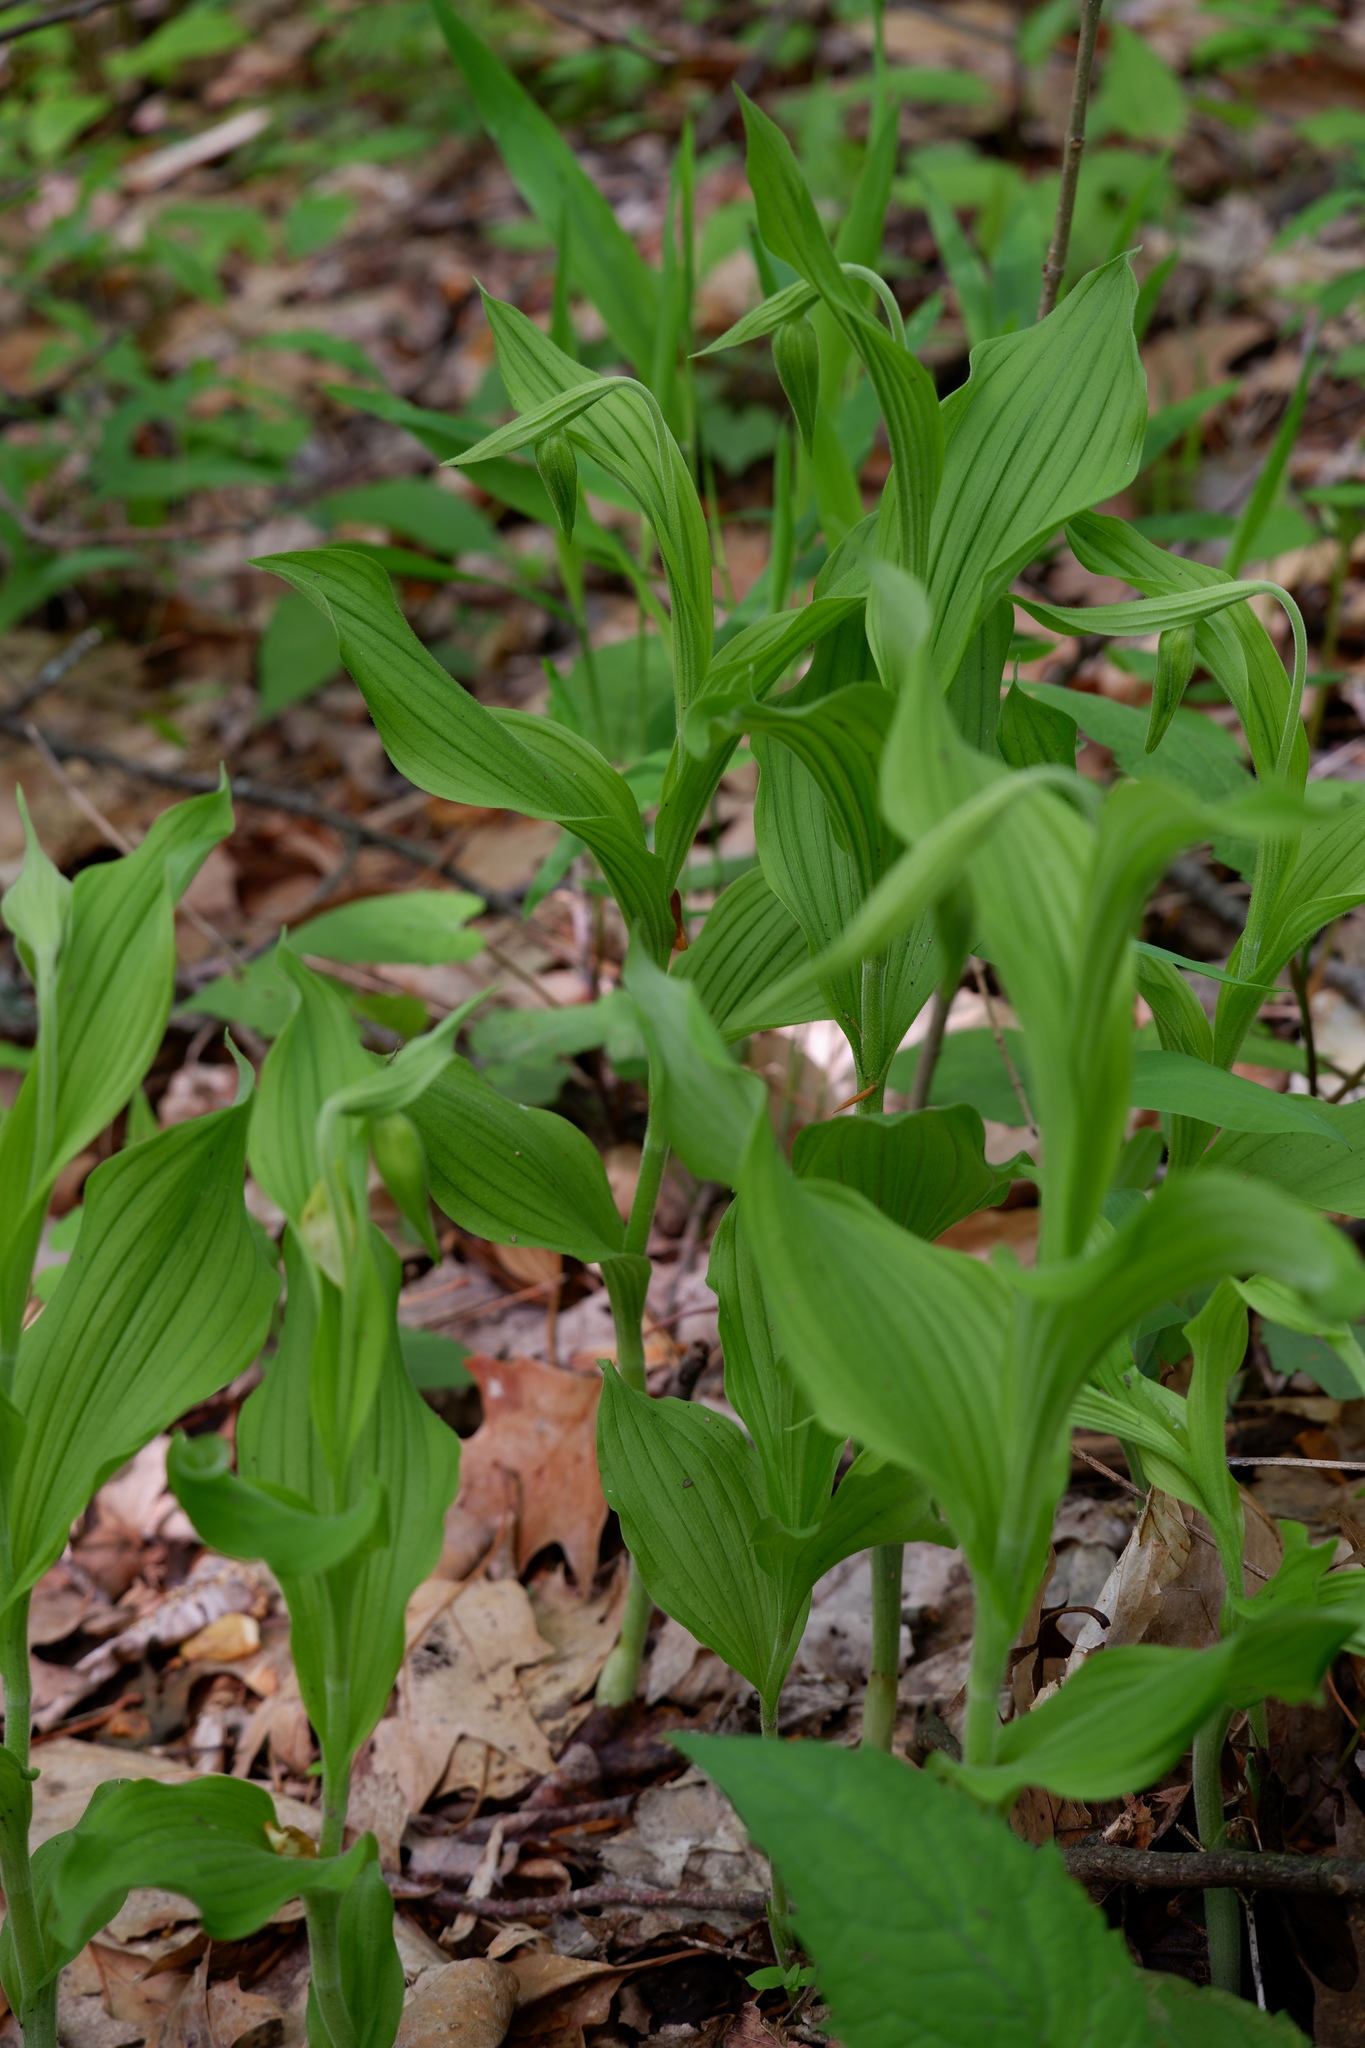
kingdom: Plantae
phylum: Tracheophyta
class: Liliopsida
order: Asparagales
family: Orchidaceae
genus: Cypripedium
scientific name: Cypripedium parviflorum
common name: American yellow lady's-slipper
